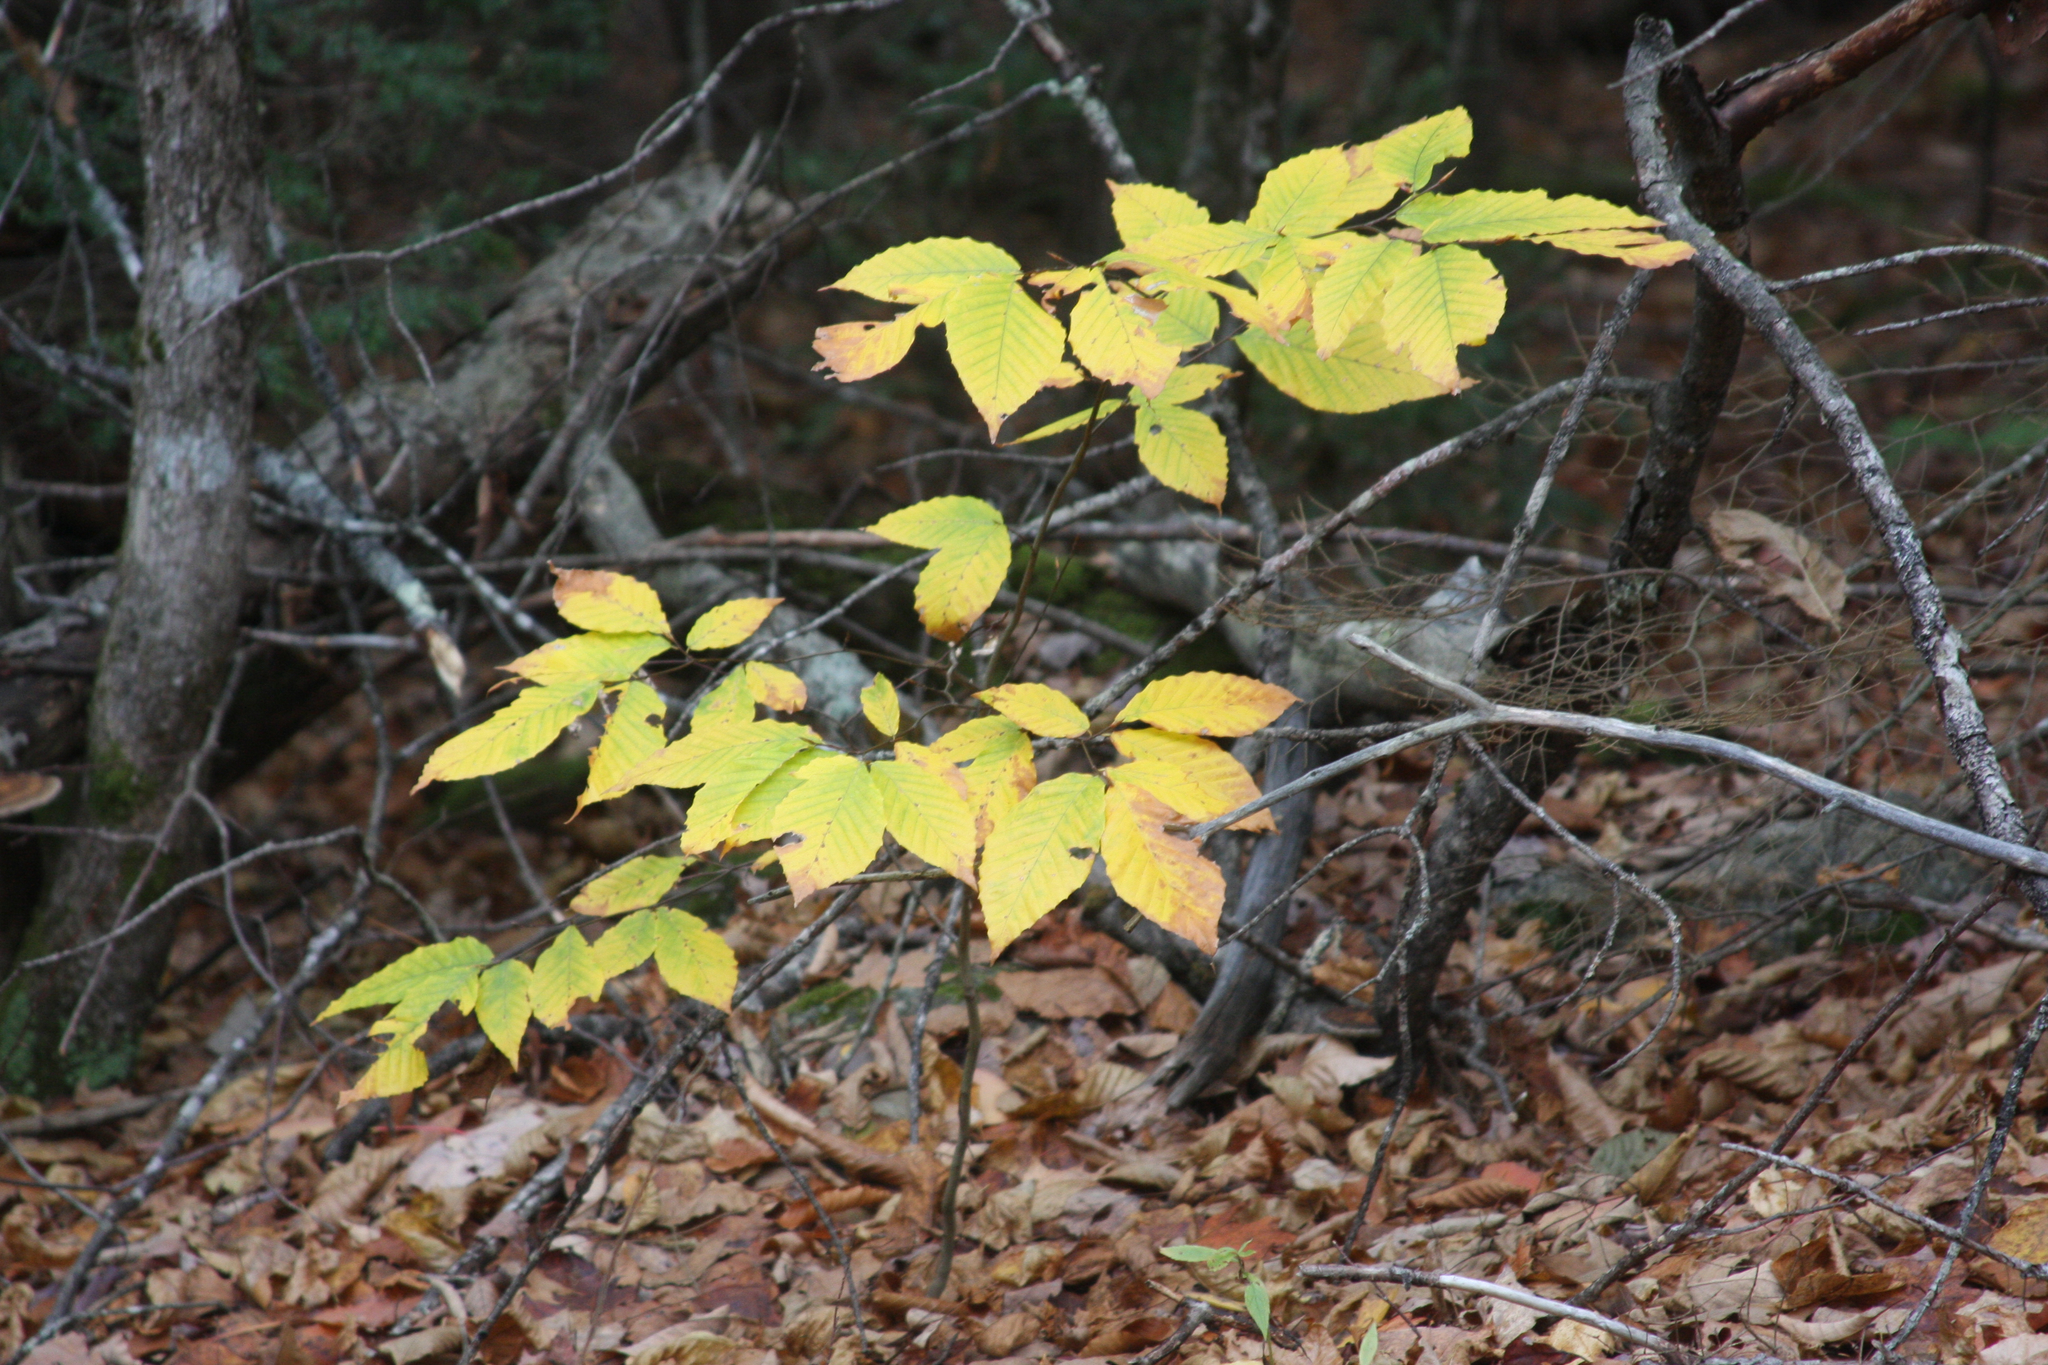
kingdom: Plantae
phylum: Tracheophyta
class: Magnoliopsida
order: Fagales
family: Fagaceae
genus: Fagus
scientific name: Fagus grandifolia
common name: American beech
